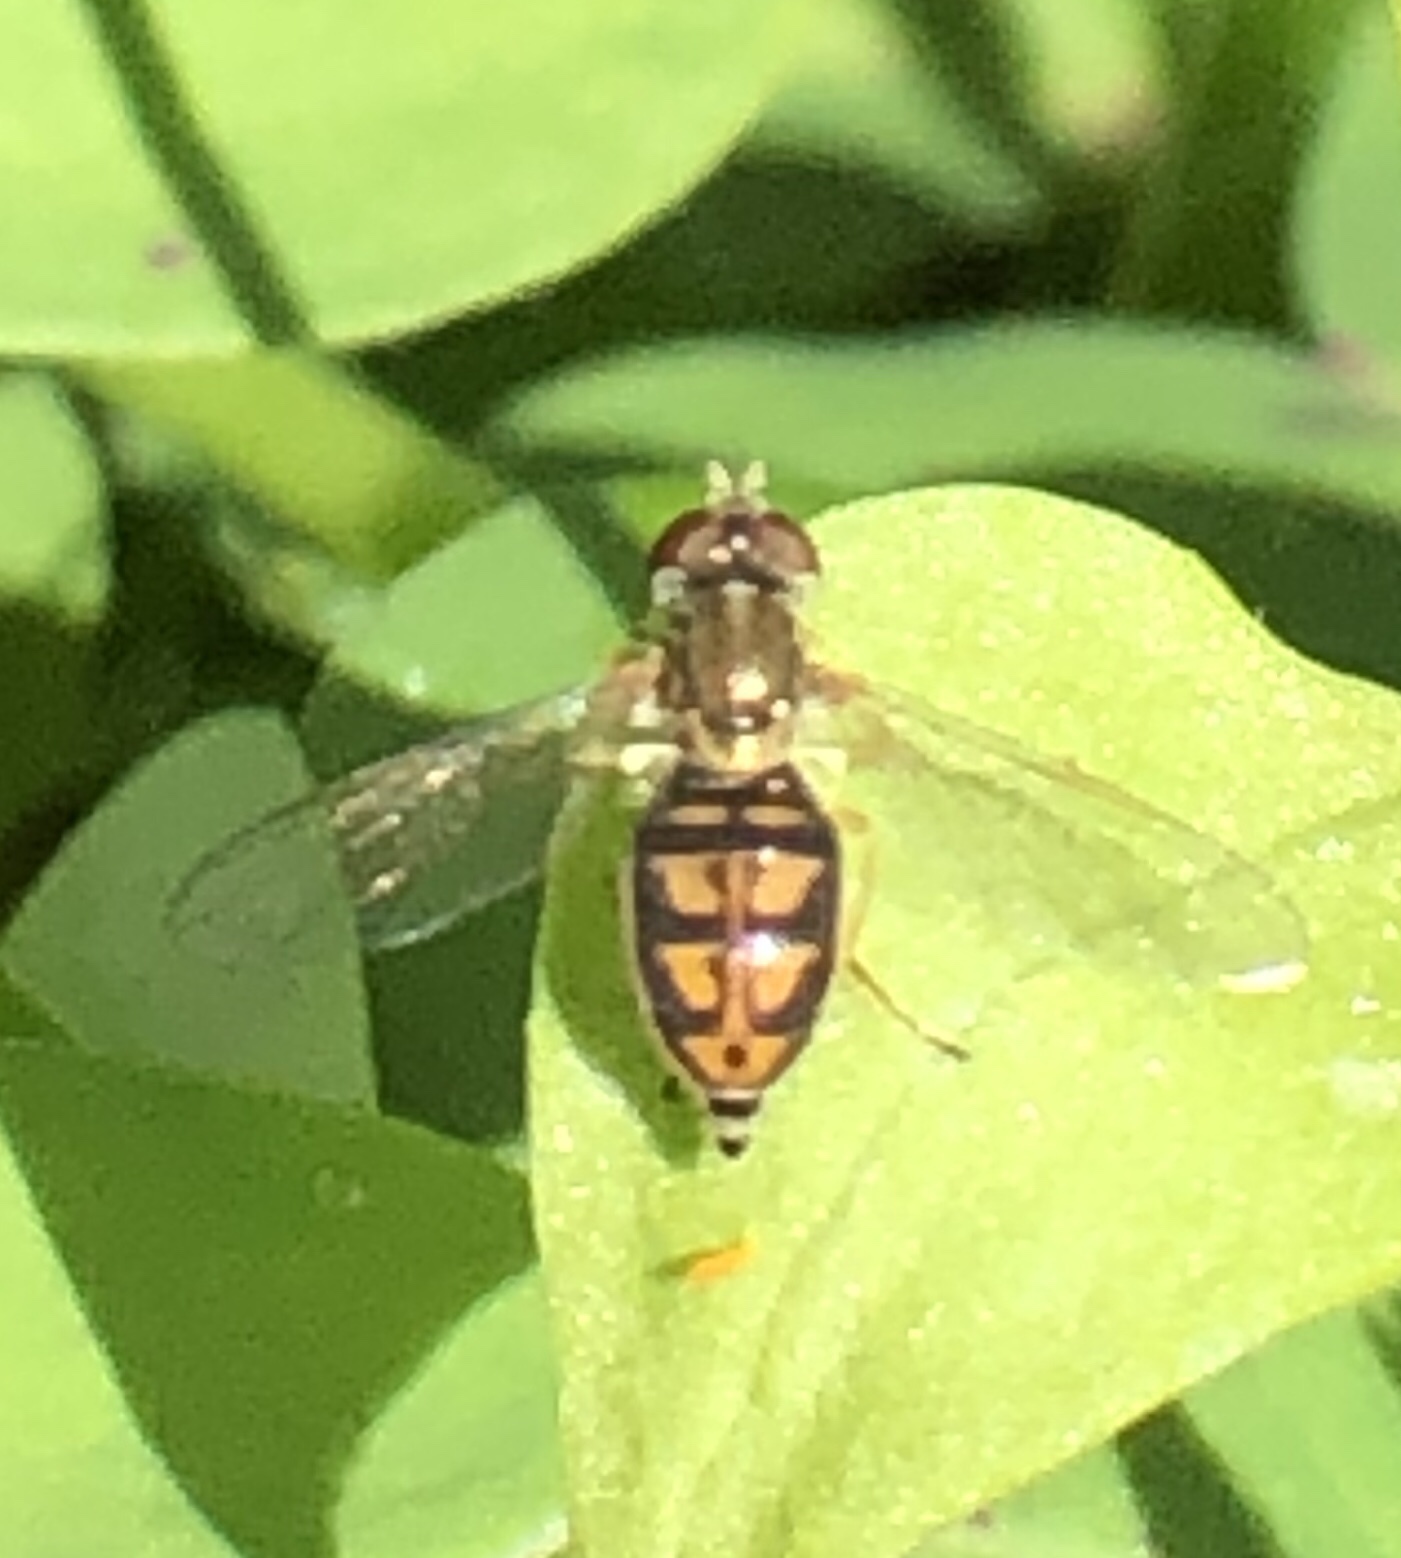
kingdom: Animalia
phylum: Arthropoda
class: Insecta
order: Diptera
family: Syrphidae
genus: Toxomerus
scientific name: Toxomerus marginatus
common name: Syrphid fly
